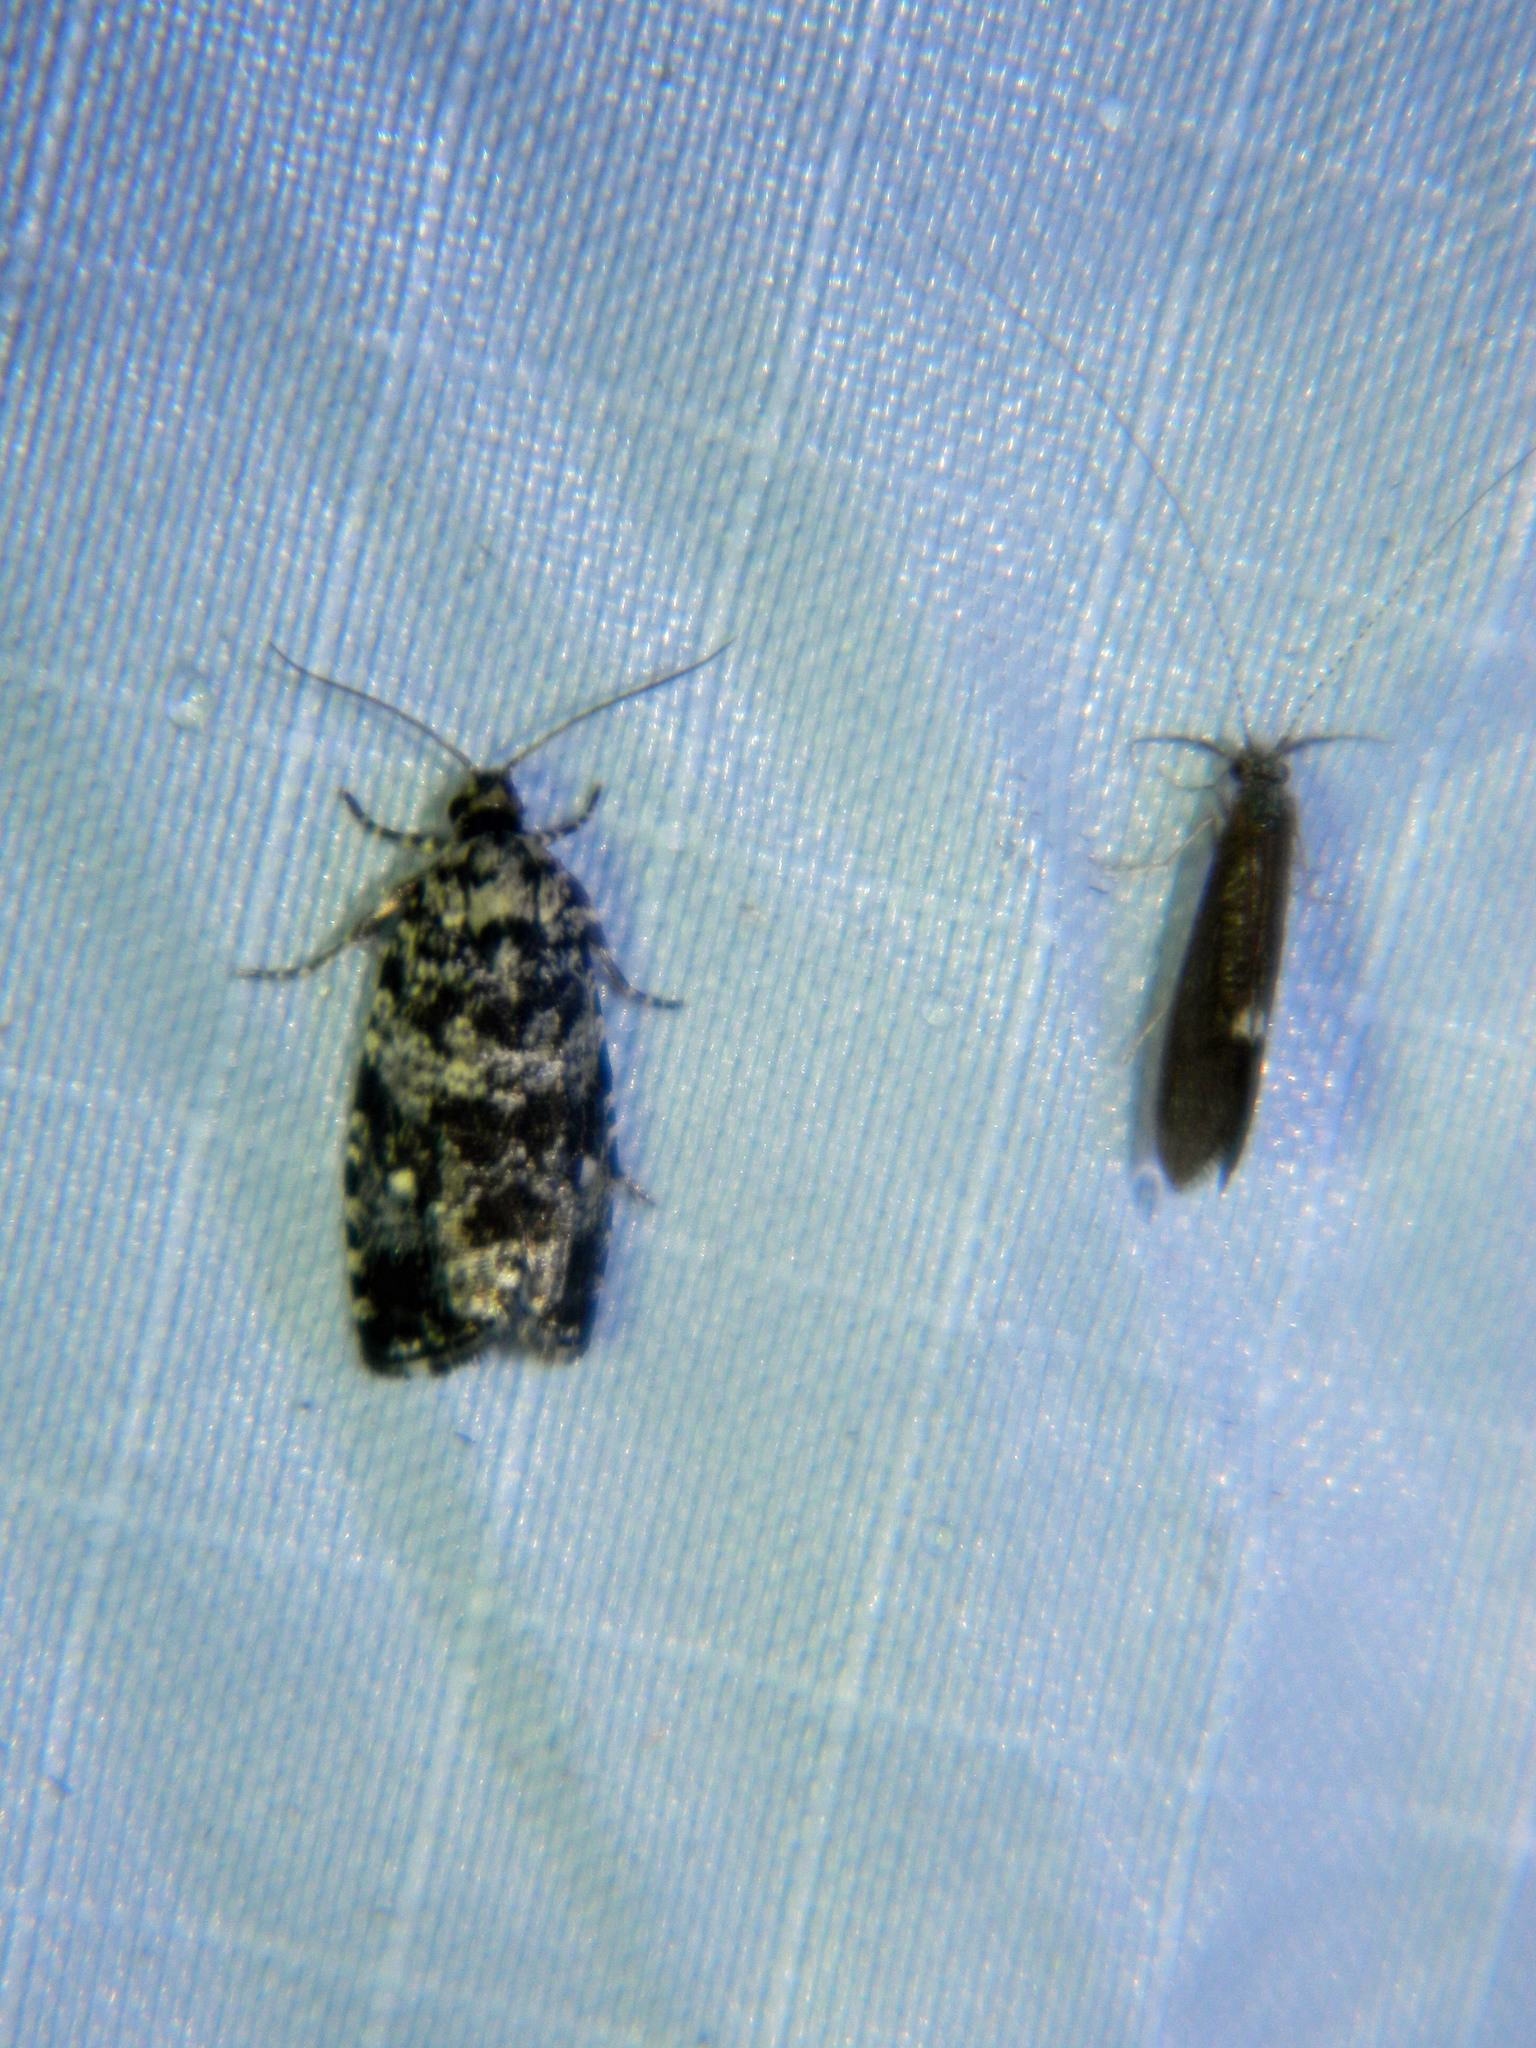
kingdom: Animalia
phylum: Arthropoda
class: Insecta
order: Lepidoptera
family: Tortricidae
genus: Phiaris
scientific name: Phiaris turfosana
